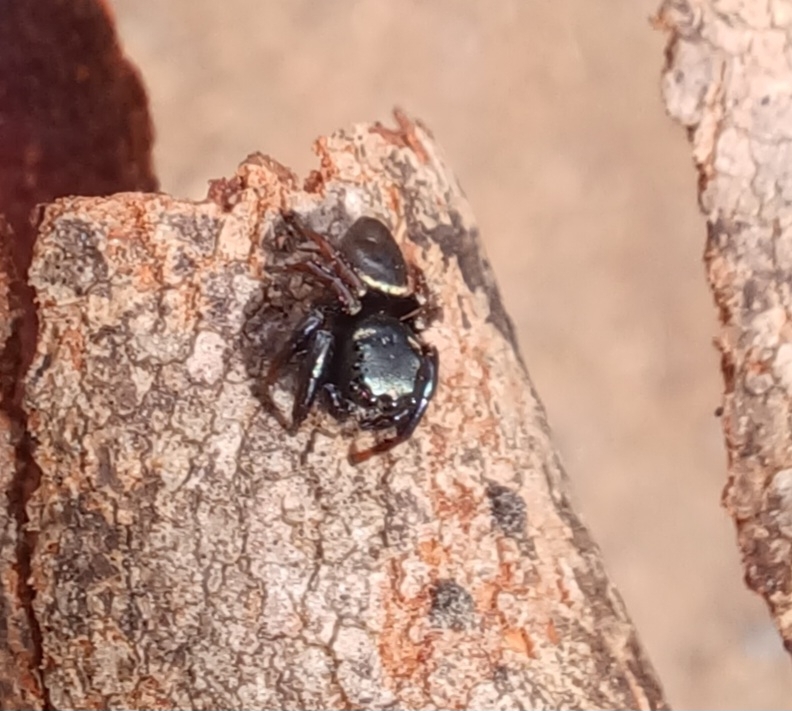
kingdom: Animalia
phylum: Arthropoda
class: Arachnida
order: Araneae
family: Salticidae
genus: Zenodorus
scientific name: Zenodorus orbiculatus
